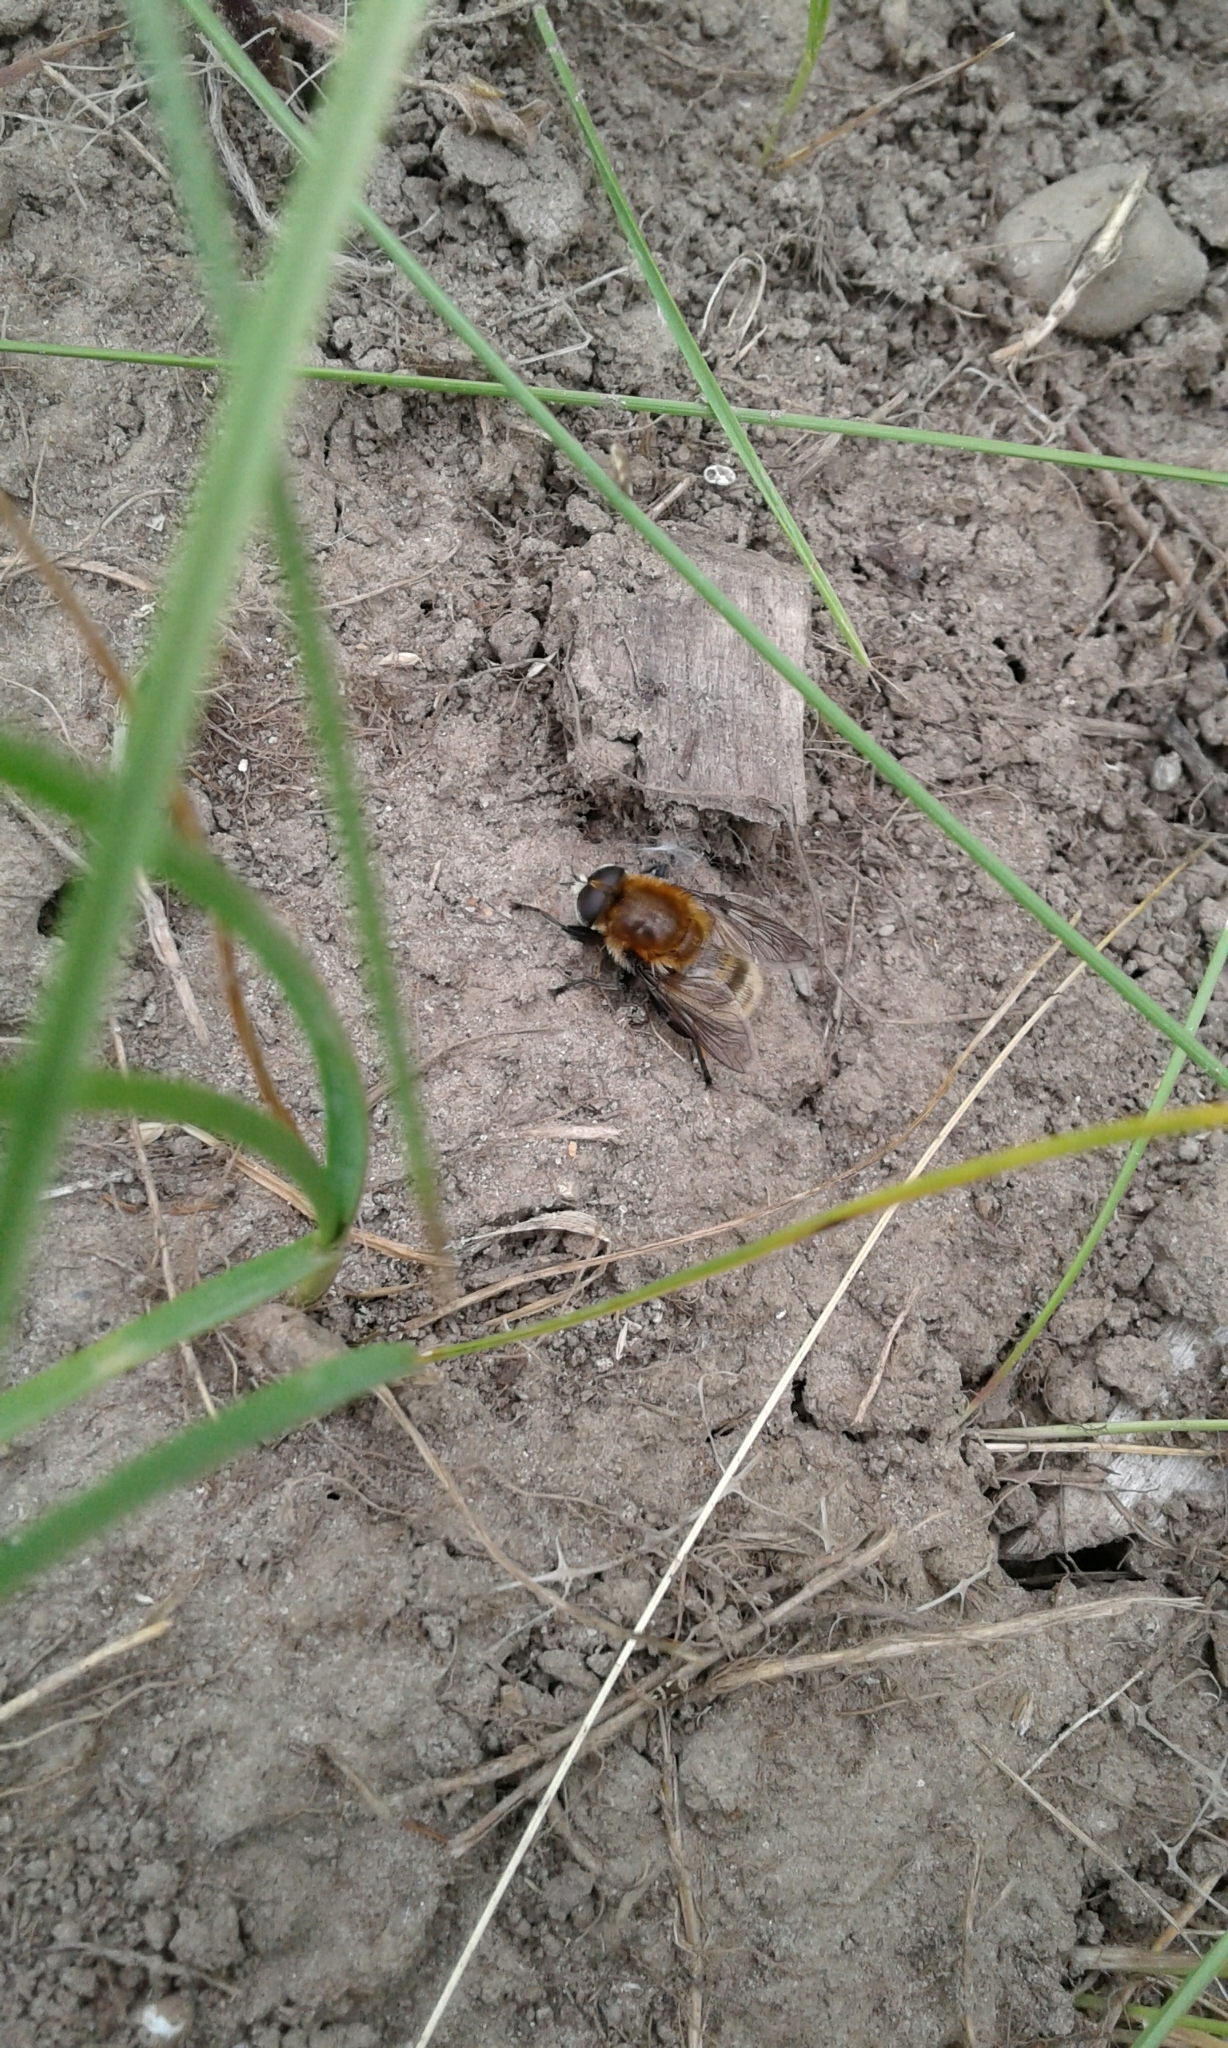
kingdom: Animalia
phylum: Arthropoda
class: Insecta
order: Diptera
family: Syrphidae
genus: Merodon
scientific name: Merodon equestris
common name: Greater bulb-fly
